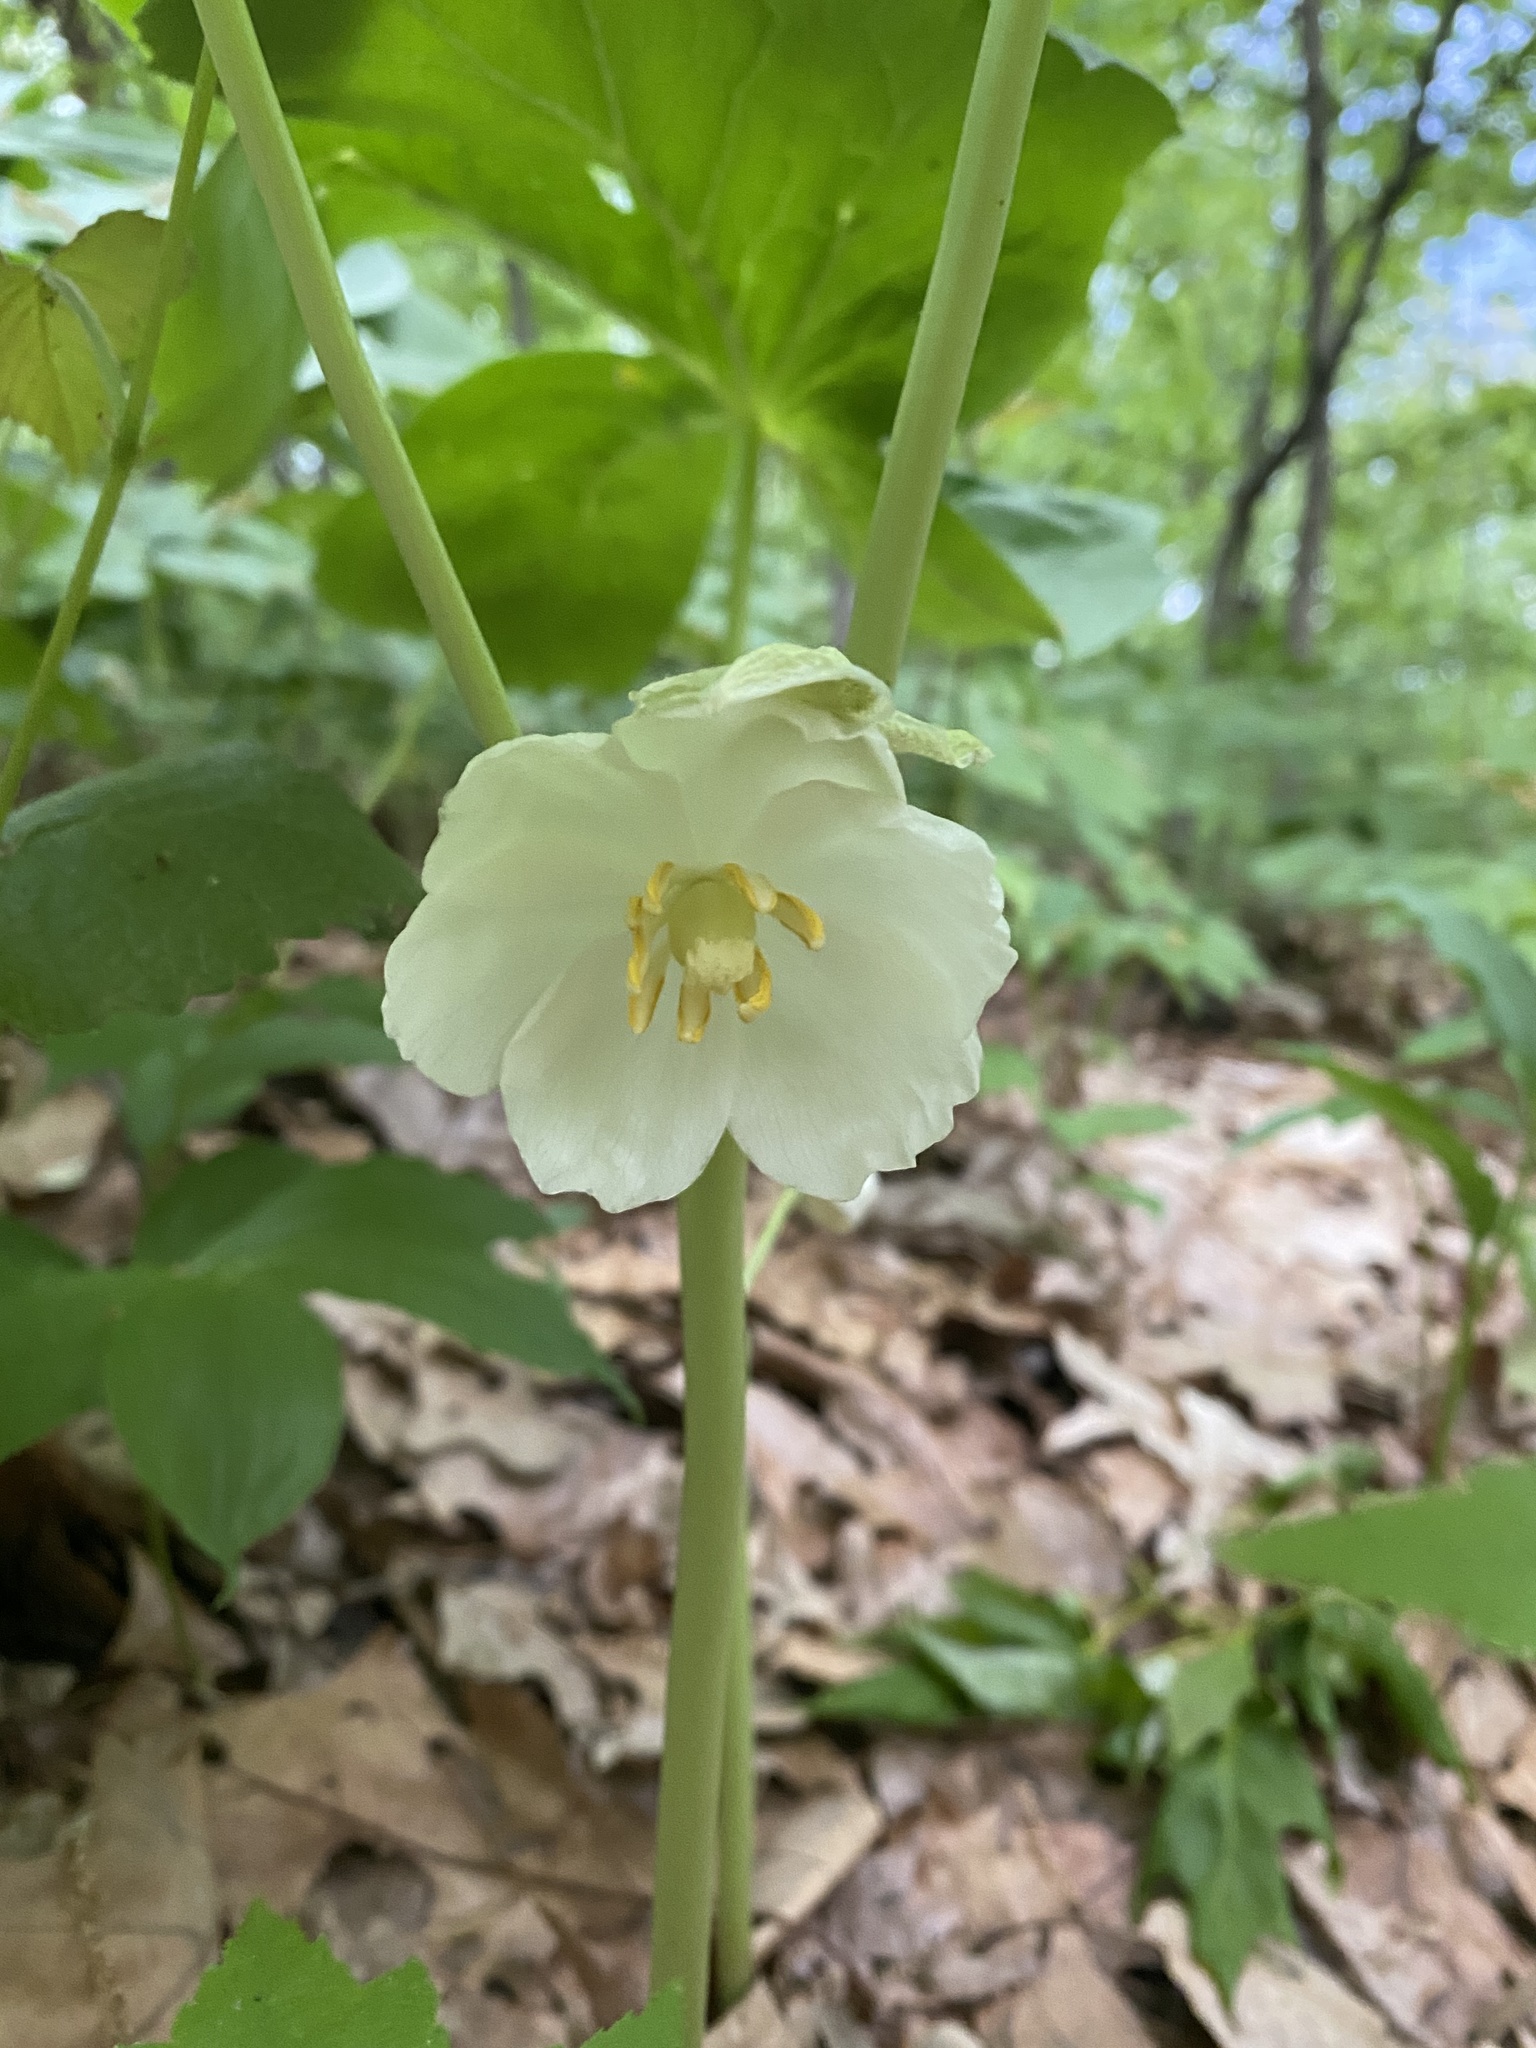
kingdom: Plantae
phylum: Tracheophyta
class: Magnoliopsida
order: Ranunculales
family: Berberidaceae
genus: Podophyllum
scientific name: Podophyllum peltatum
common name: Wild mandrake
